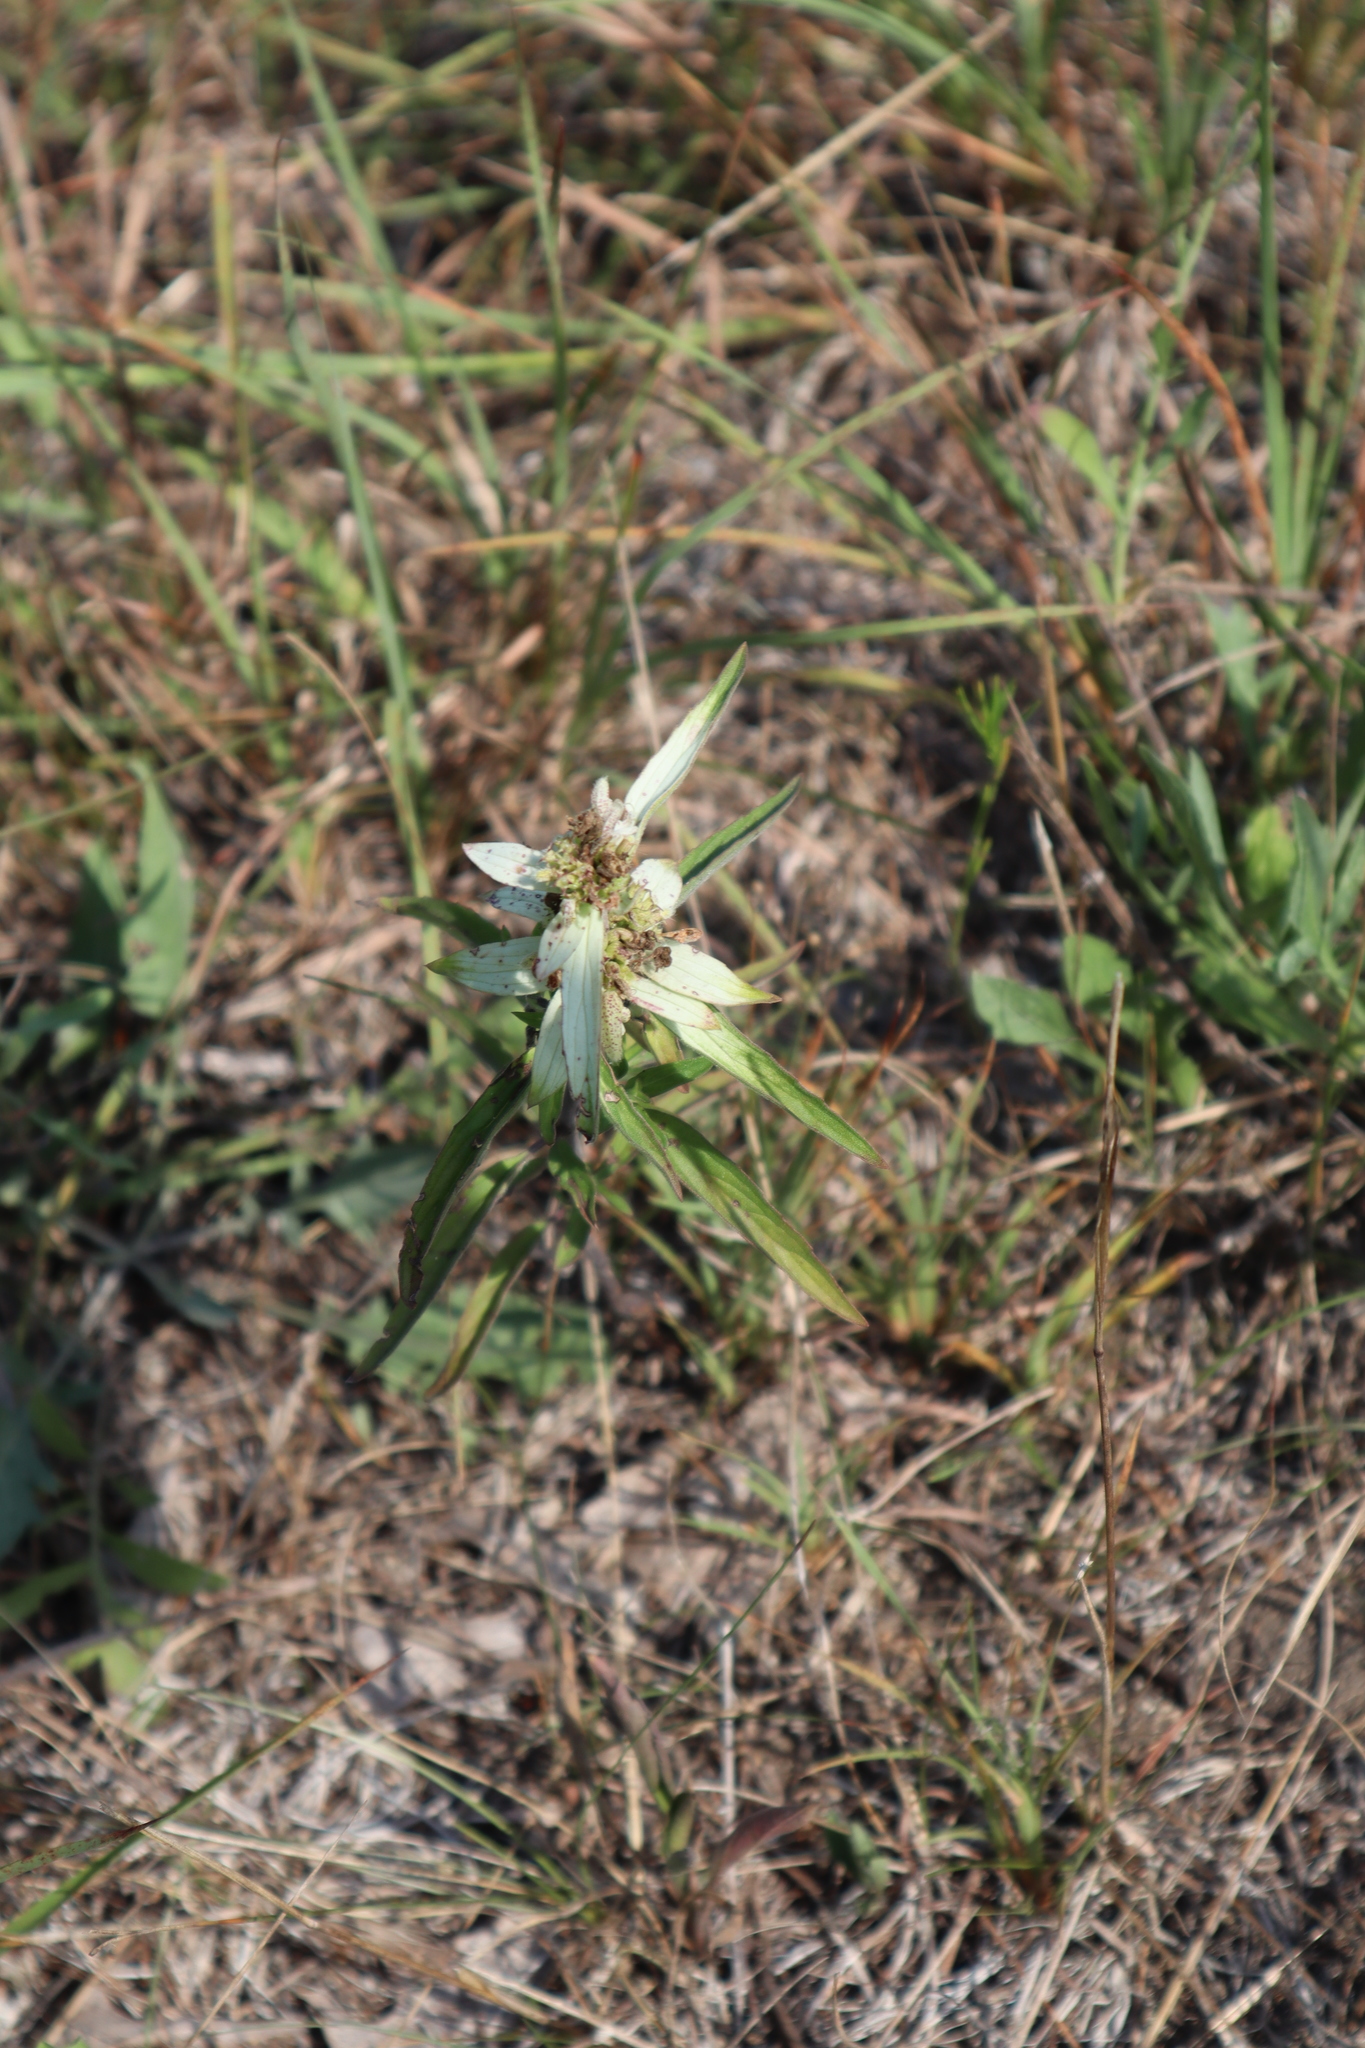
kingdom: Plantae
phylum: Tracheophyta
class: Magnoliopsida
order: Lamiales
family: Lamiaceae
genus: Monarda
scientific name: Monarda punctata
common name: Dotted monarda
